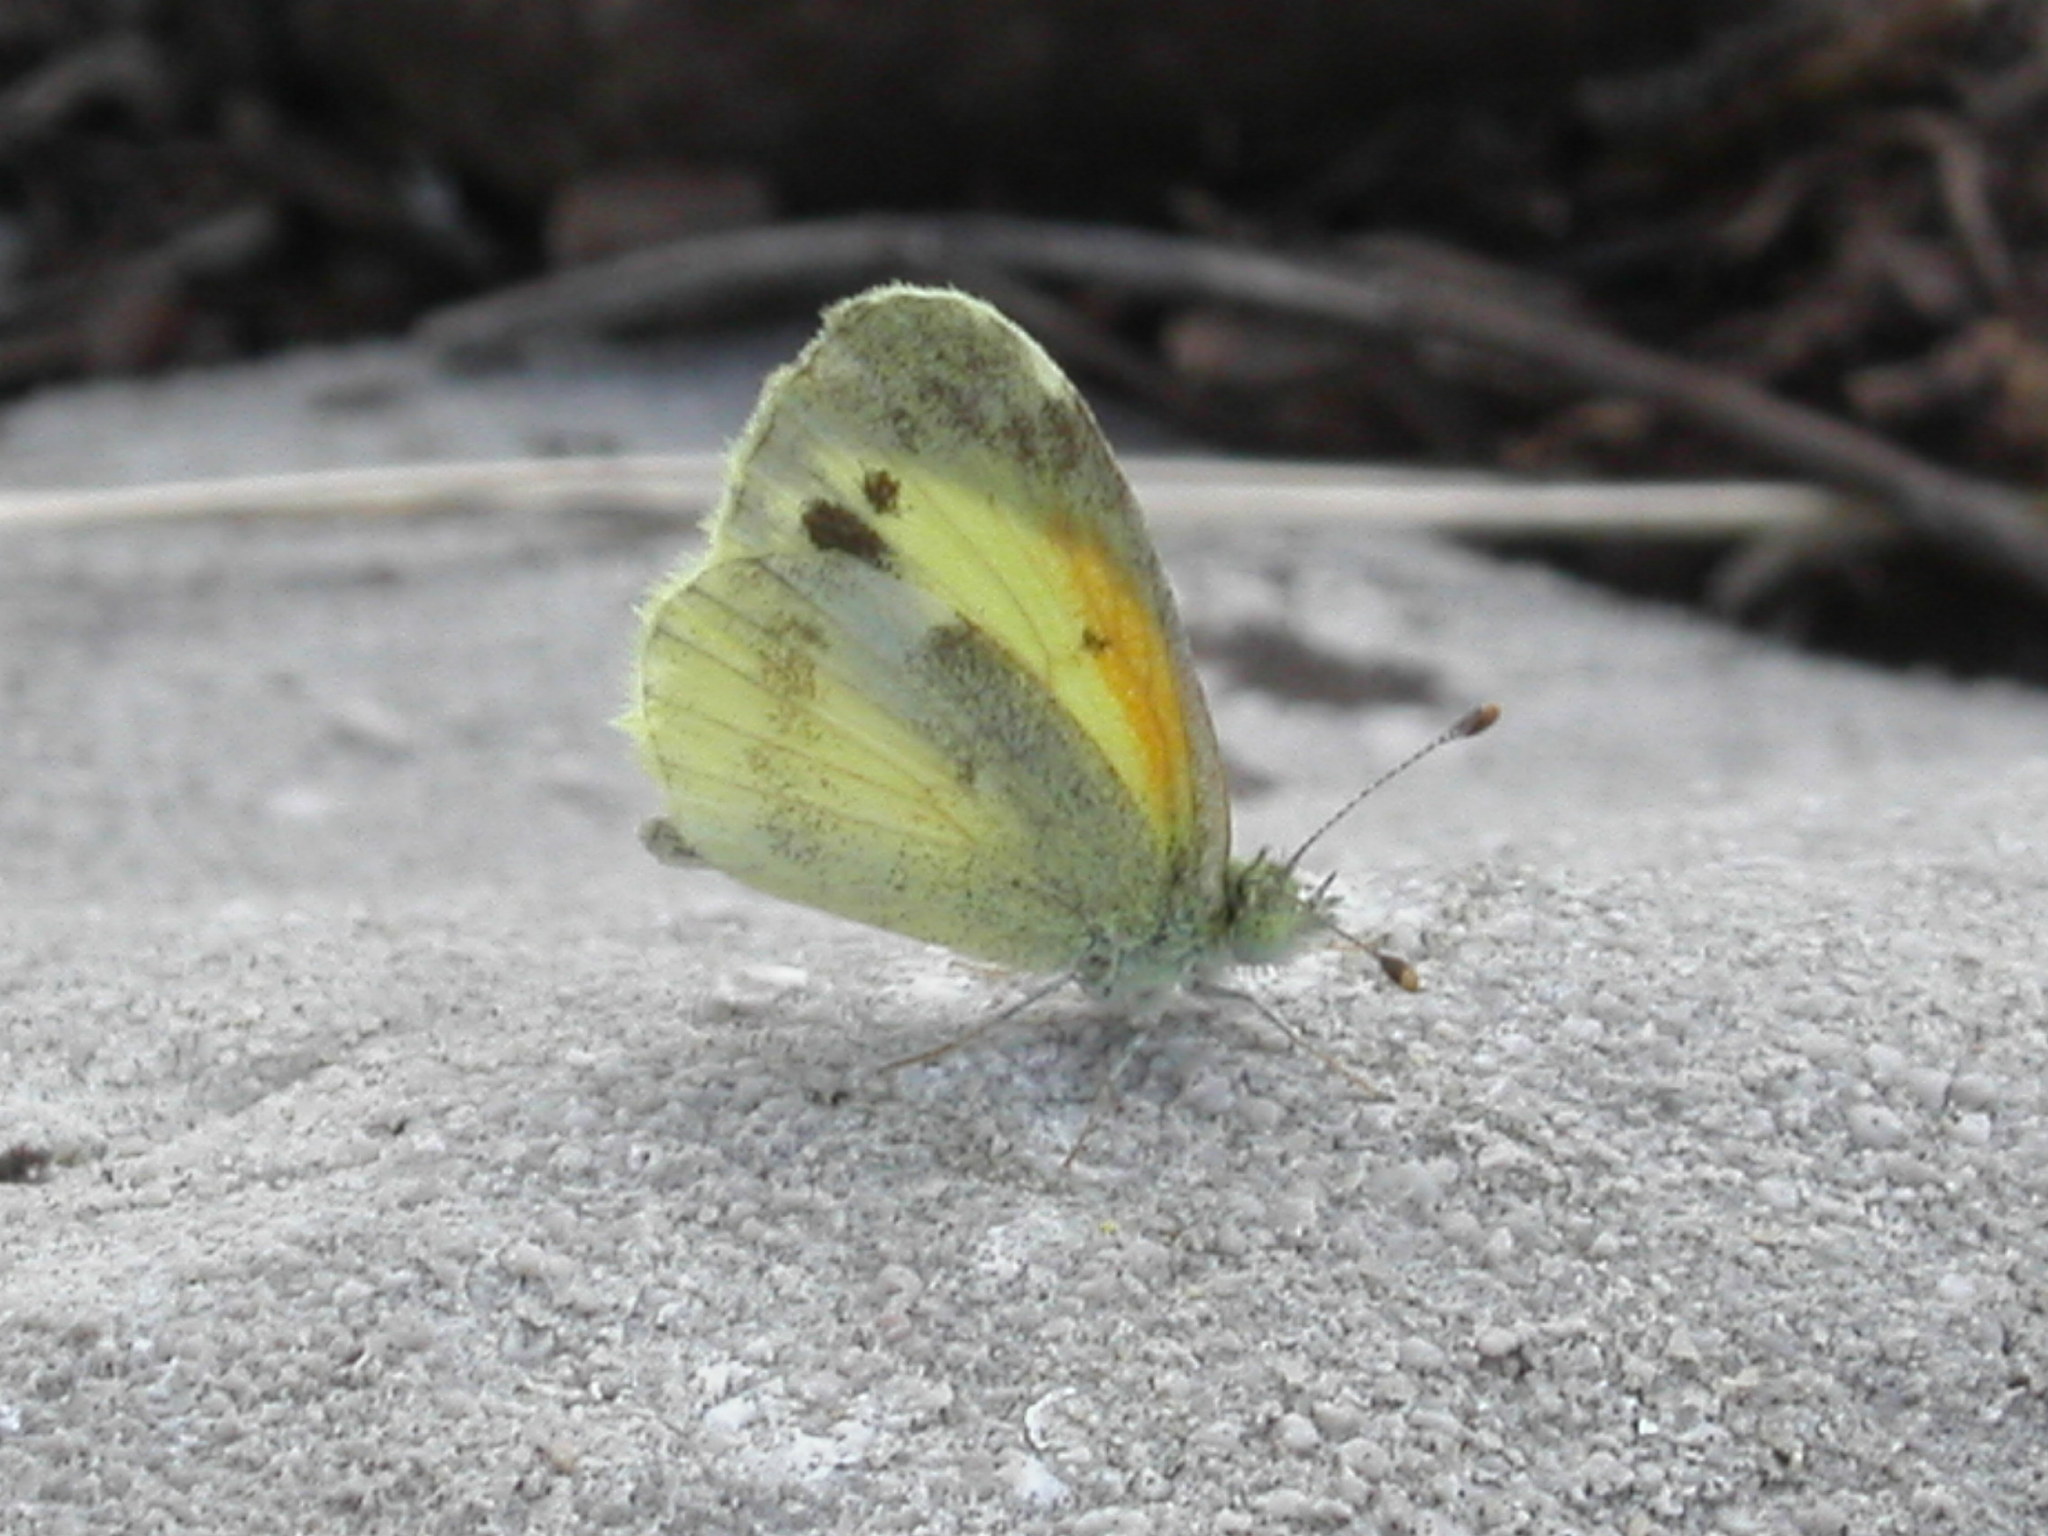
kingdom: Animalia
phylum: Arthropoda
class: Insecta
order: Lepidoptera
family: Pieridae
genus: Nathalis
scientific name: Nathalis iole
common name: Dainty sulphur
